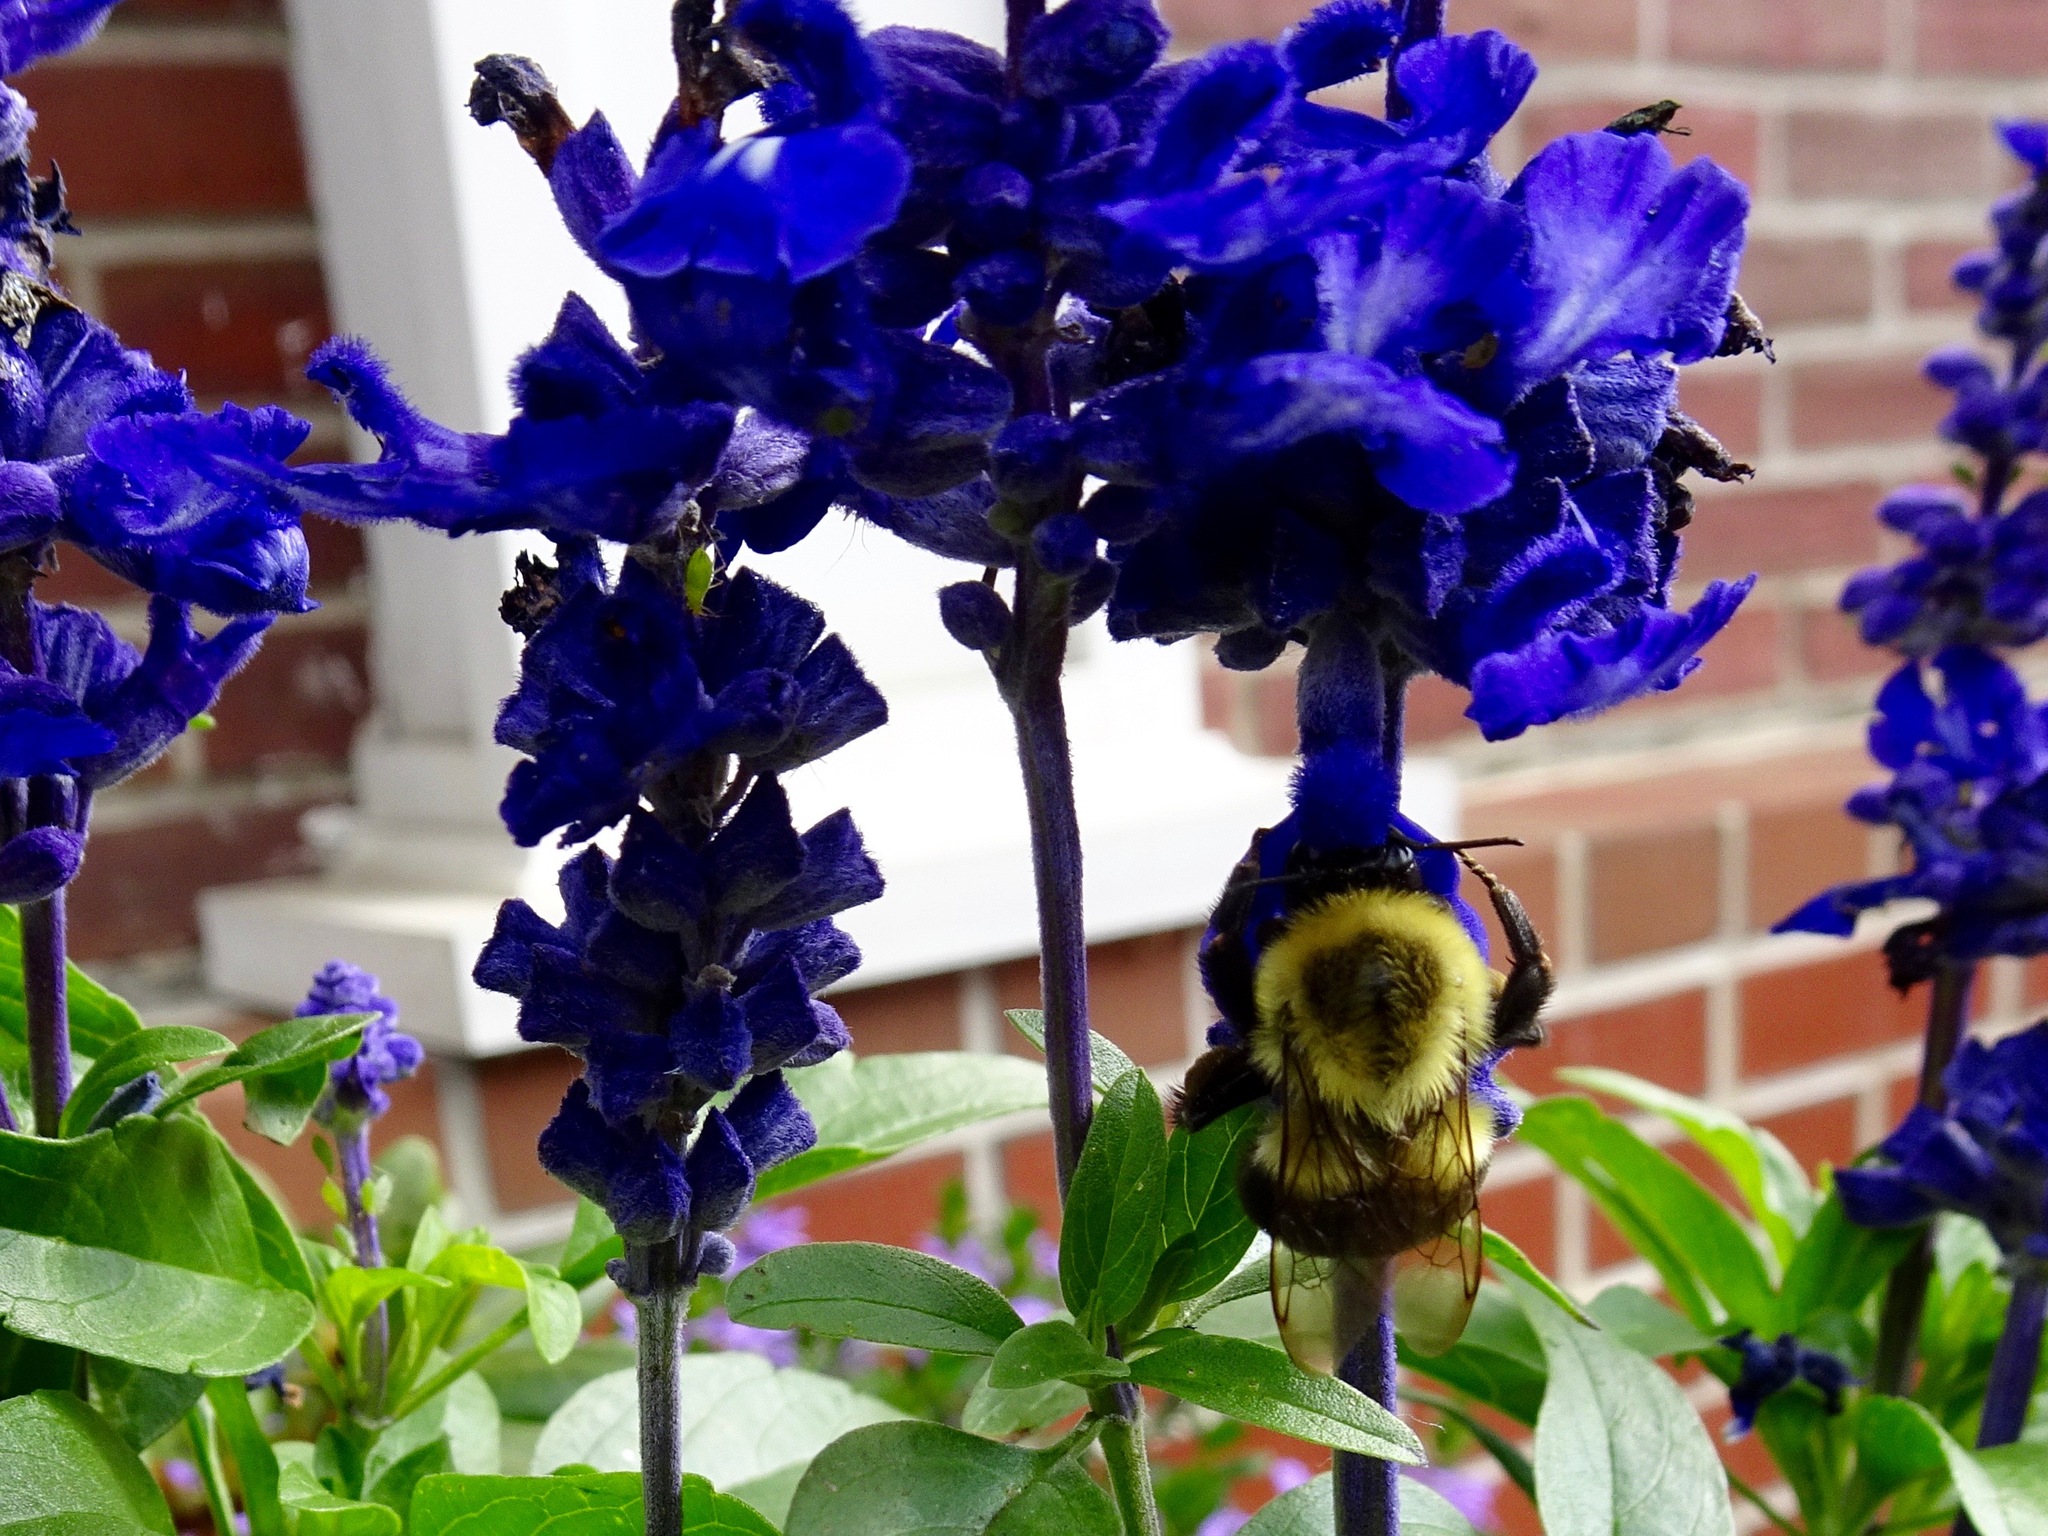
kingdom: Animalia
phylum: Arthropoda
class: Insecta
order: Hymenoptera
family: Apidae
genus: Bombus
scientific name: Bombus impatiens
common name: Common eastern bumble bee
